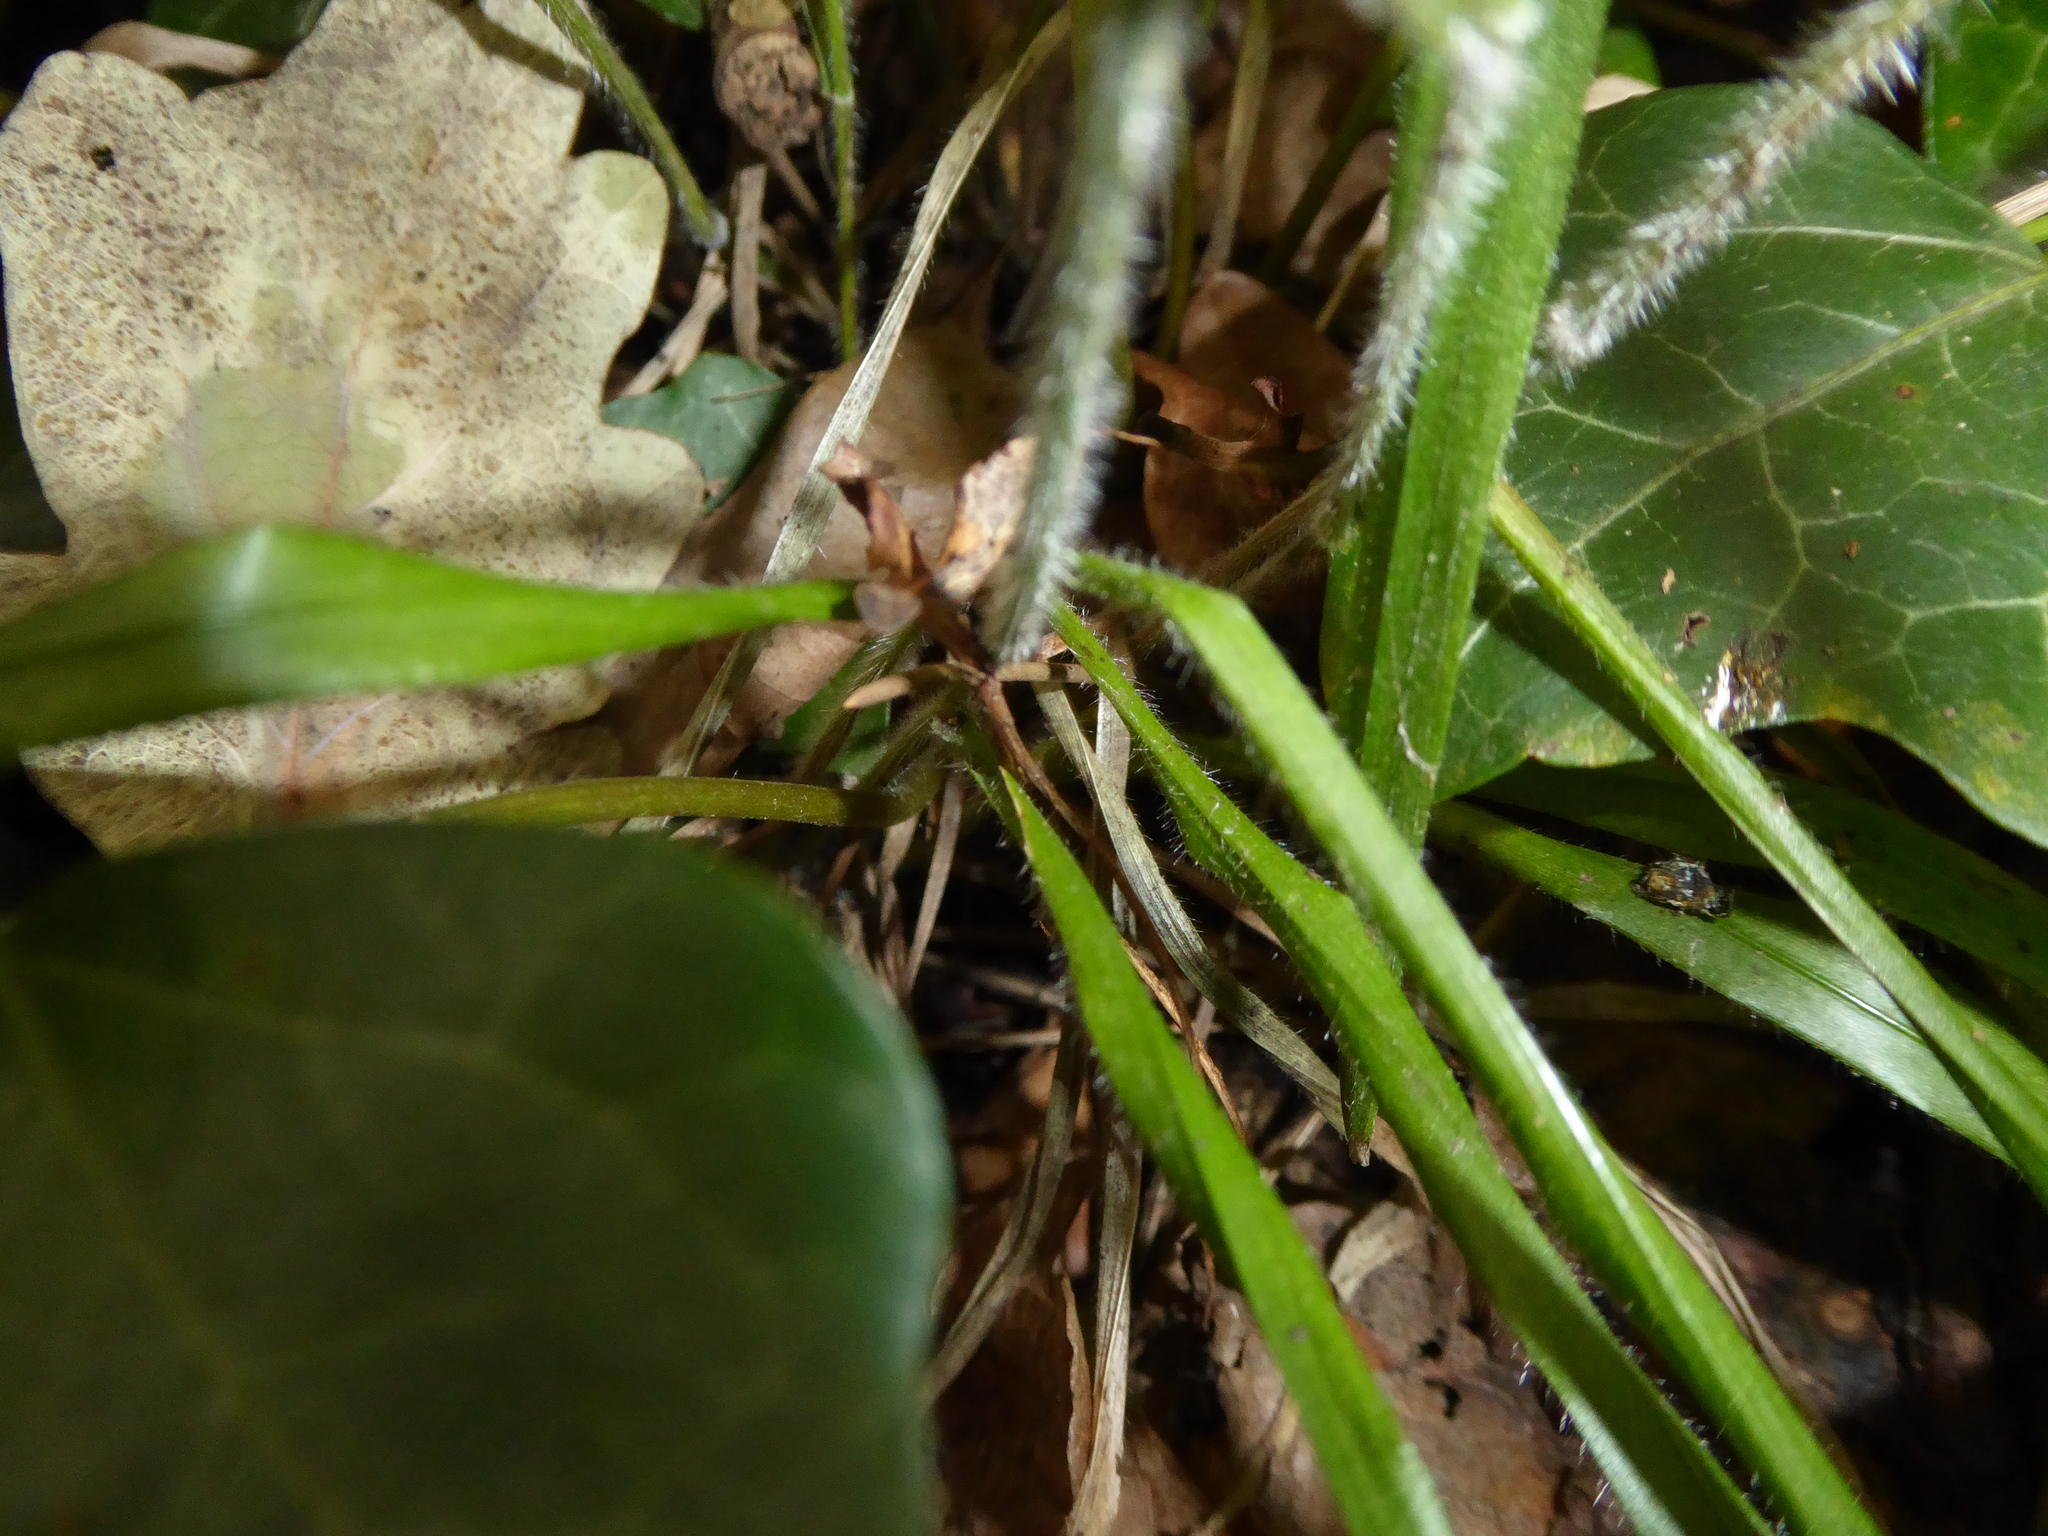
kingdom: Plantae
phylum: Tracheophyta
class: Liliopsida
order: Poales
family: Poaceae
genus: Brachypodium
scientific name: Brachypodium sylvaticum
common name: False-brome
